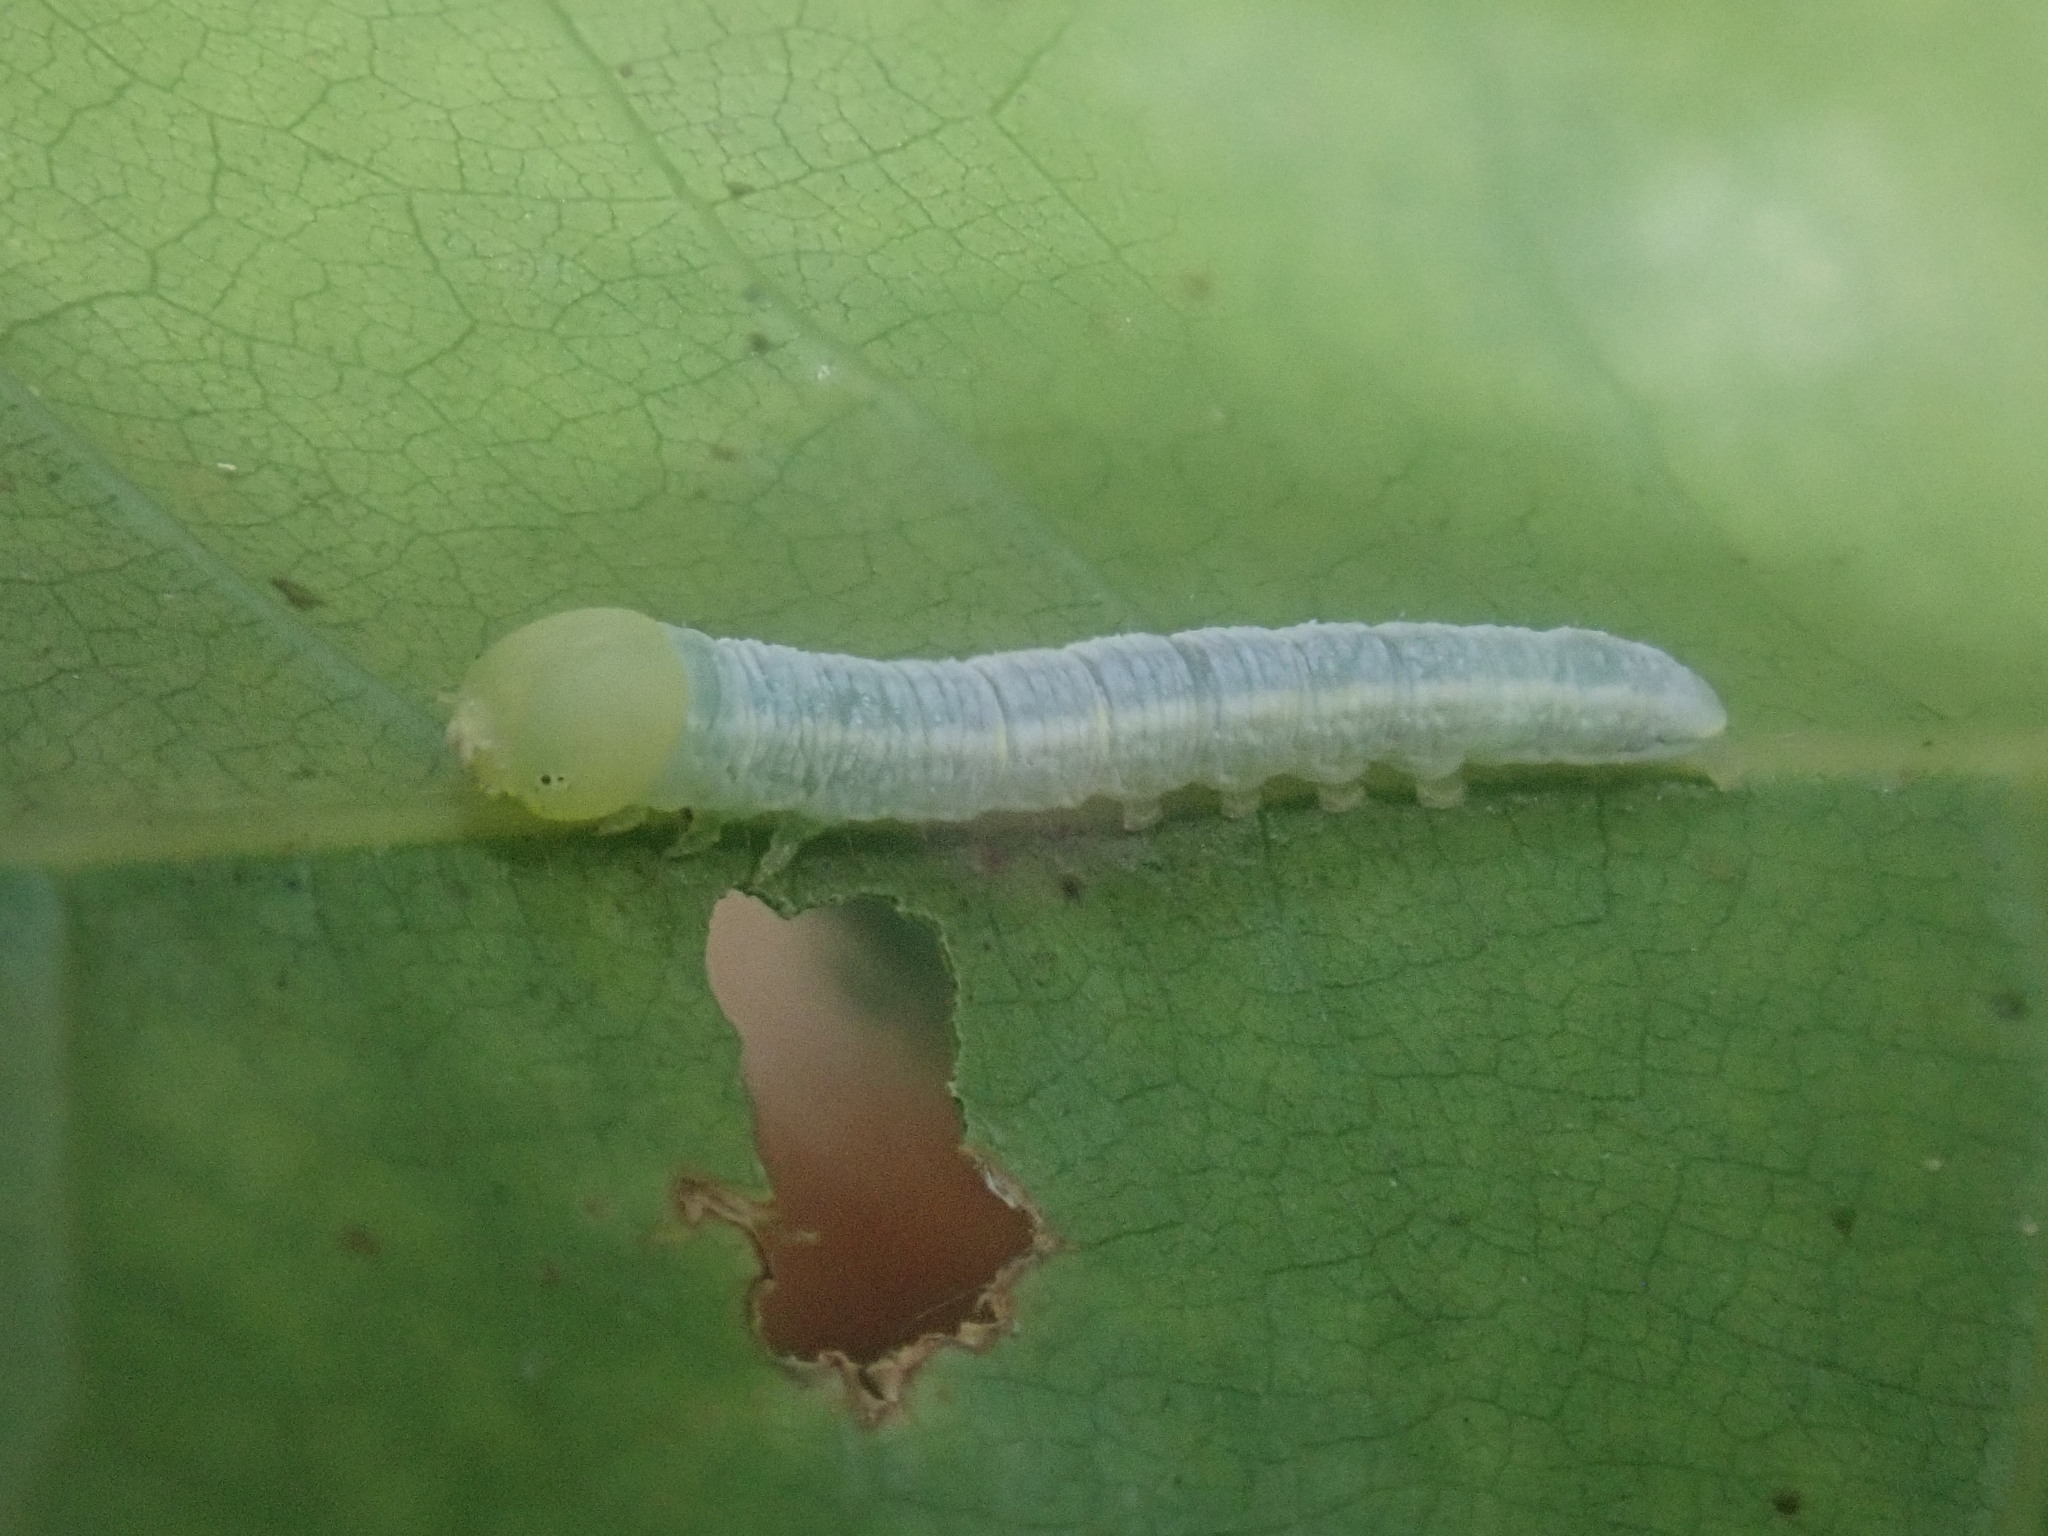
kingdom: Animalia
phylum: Arthropoda
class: Insecta
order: Lepidoptera
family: Notodontidae
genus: Nadata
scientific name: Nadata gibbosa
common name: White-dotted prominent
